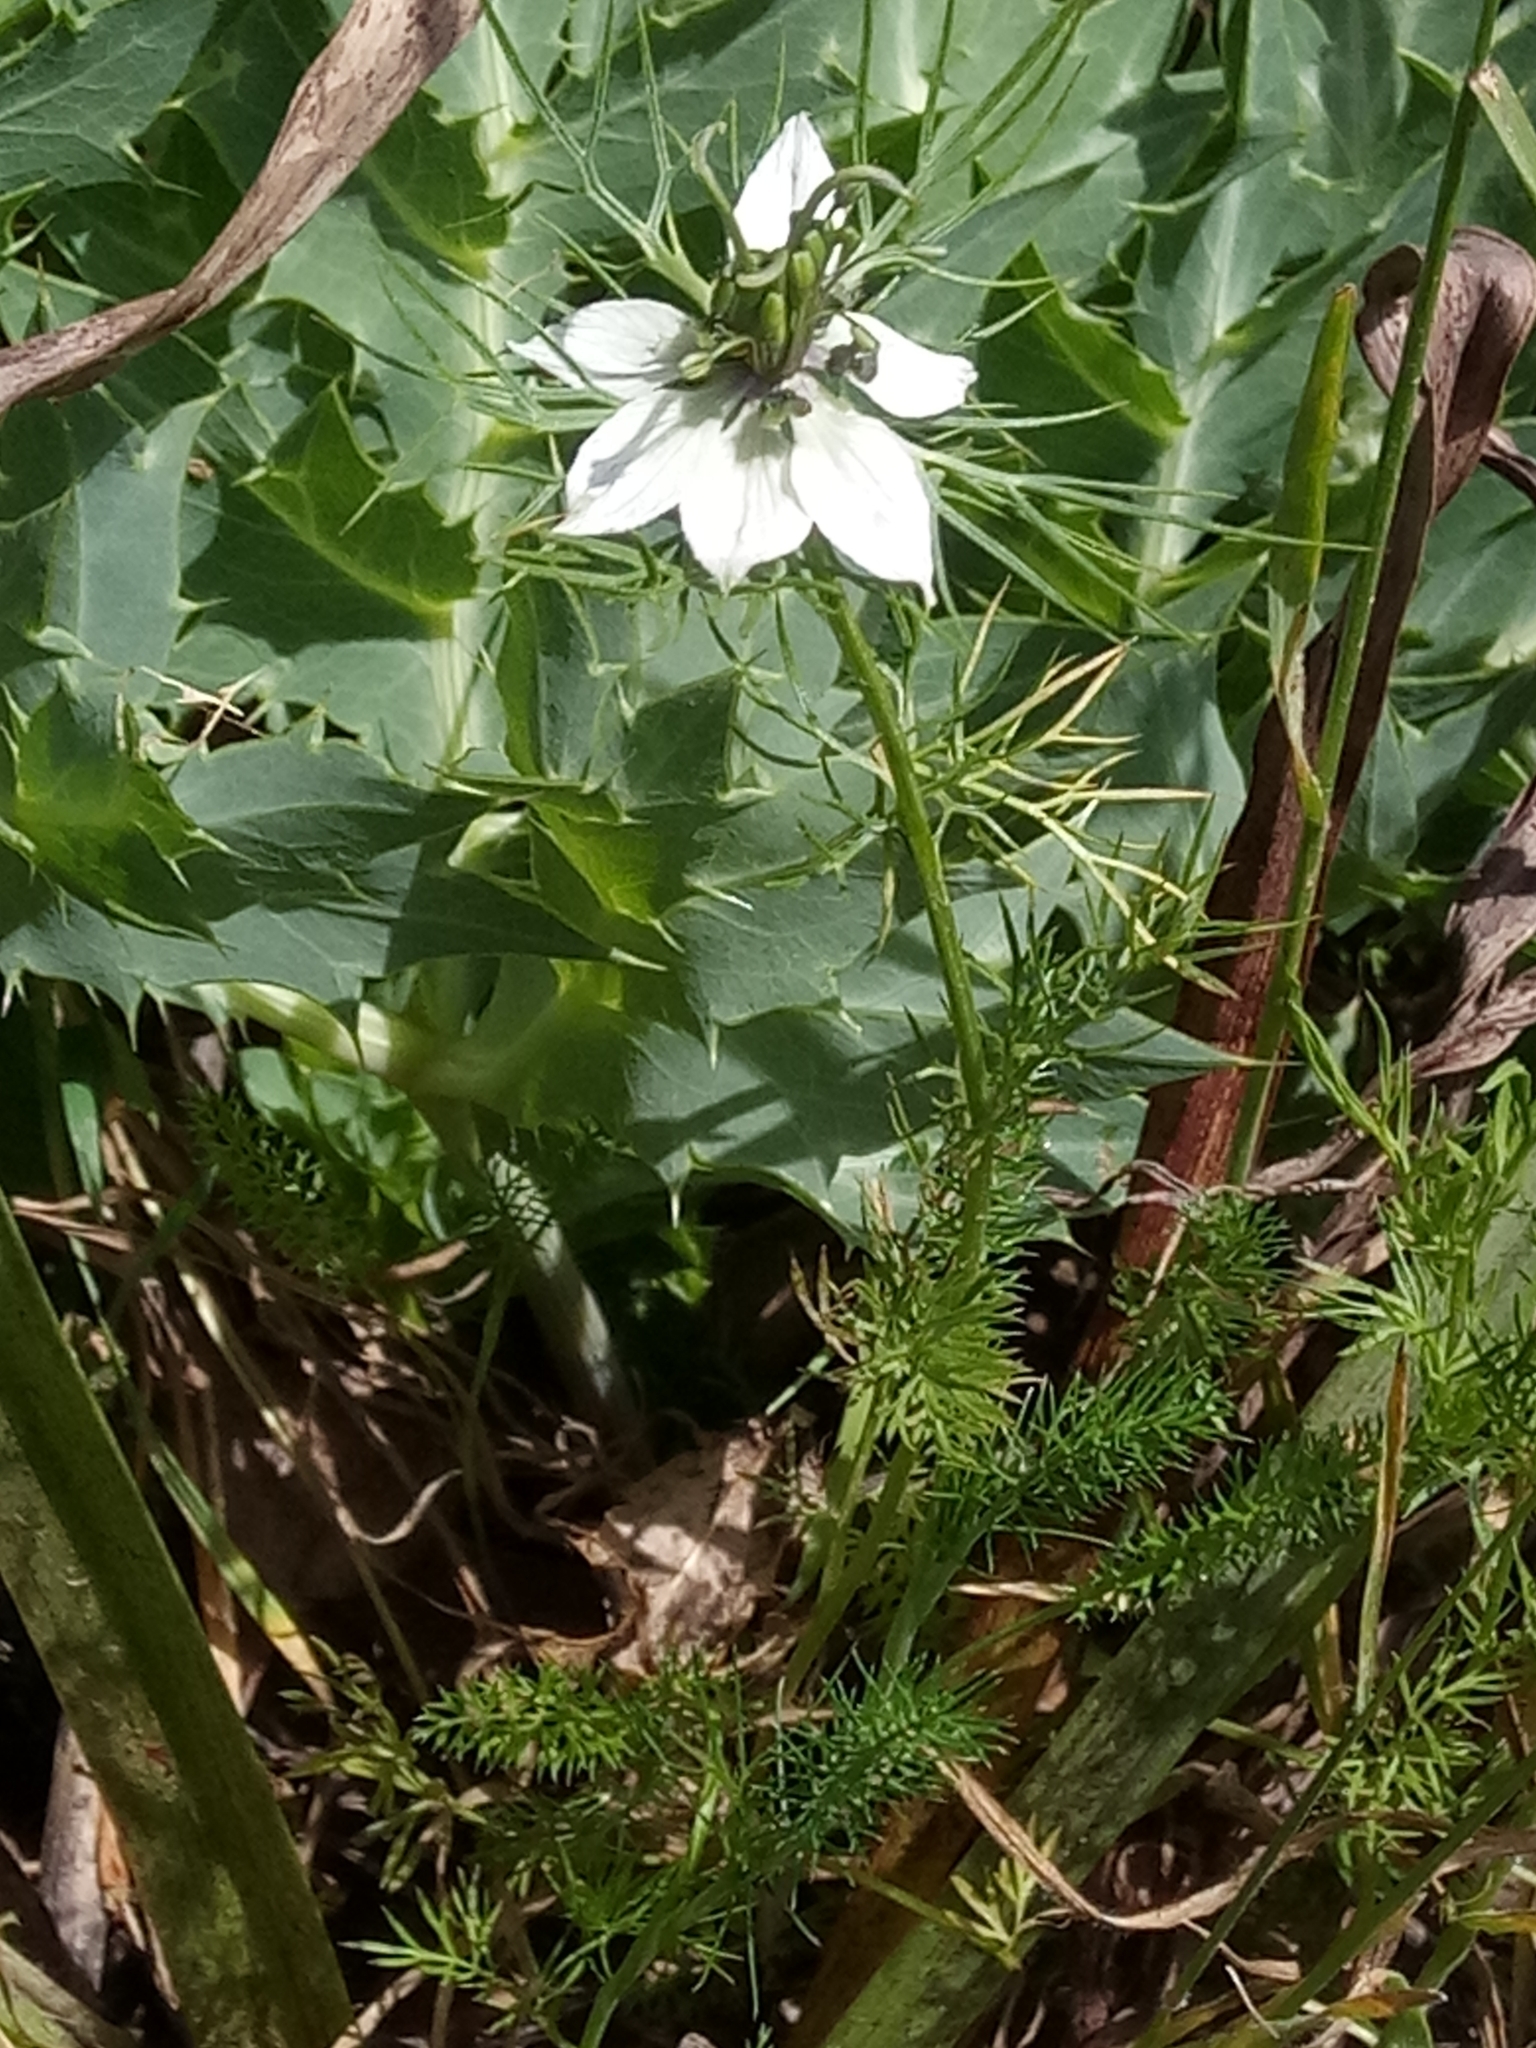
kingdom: Plantae
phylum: Tracheophyta
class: Magnoliopsida
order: Ranunculales
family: Ranunculaceae
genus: Nigella
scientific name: Nigella damascena
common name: Love-in-a-mist
